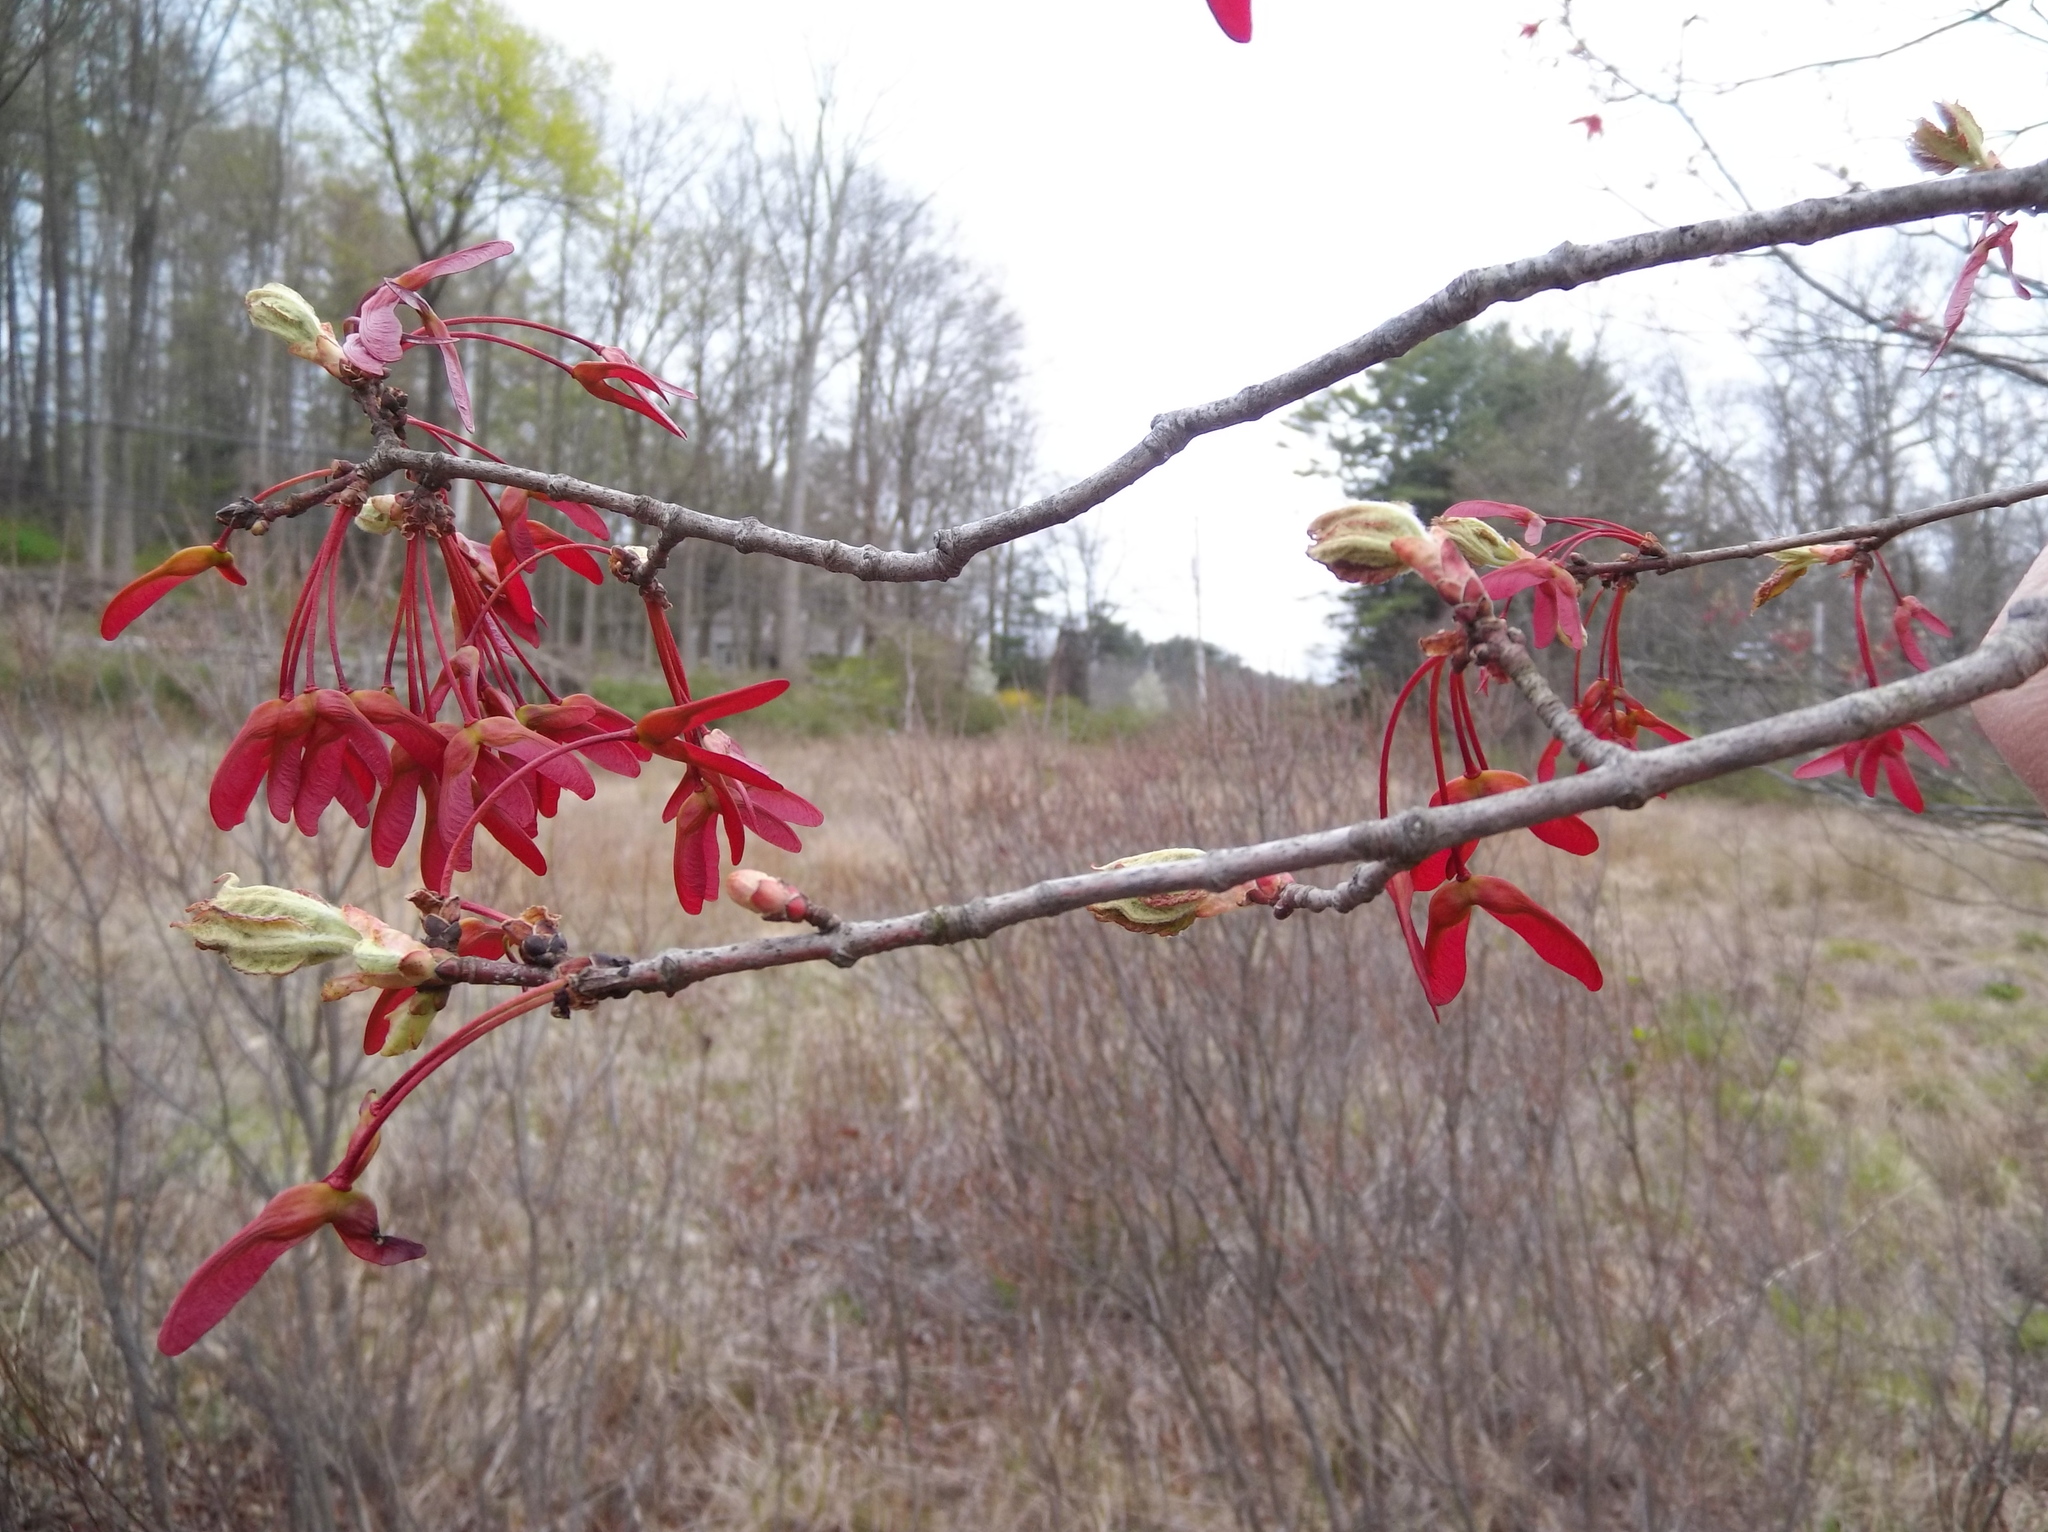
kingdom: Plantae
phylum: Tracheophyta
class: Magnoliopsida
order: Sapindales
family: Sapindaceae
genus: Acer
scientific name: Acer rubrum
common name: Red maple
